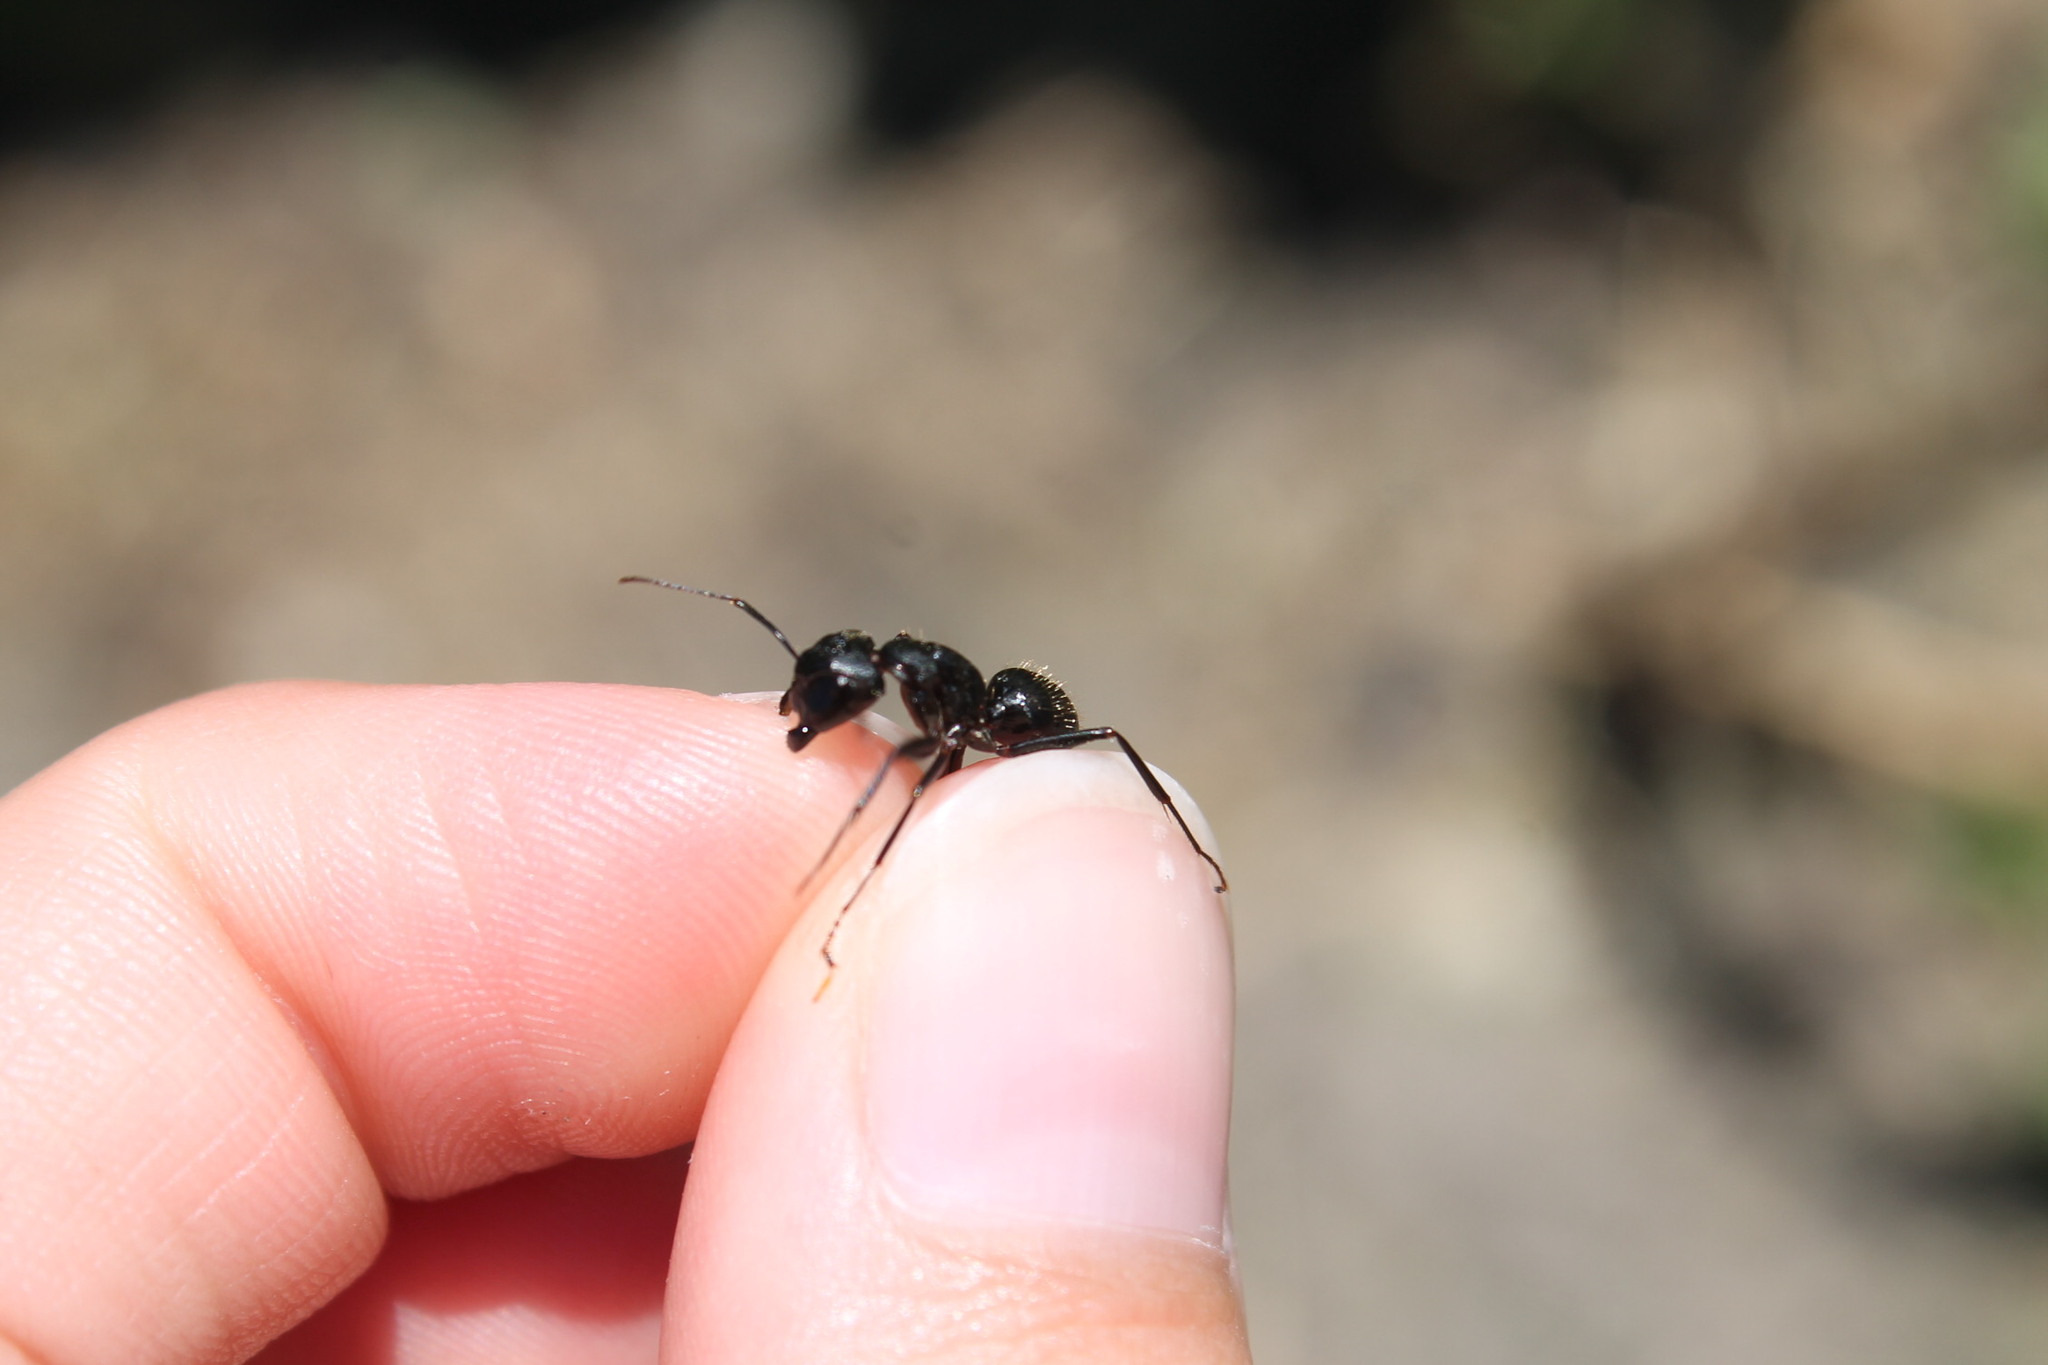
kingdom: Animalia
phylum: Arthropoda
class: Insecta
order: Hymenoptera
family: Formicidae
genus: Camponotus
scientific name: Camponotus pennsylvanicus
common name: Black carpenter ant
